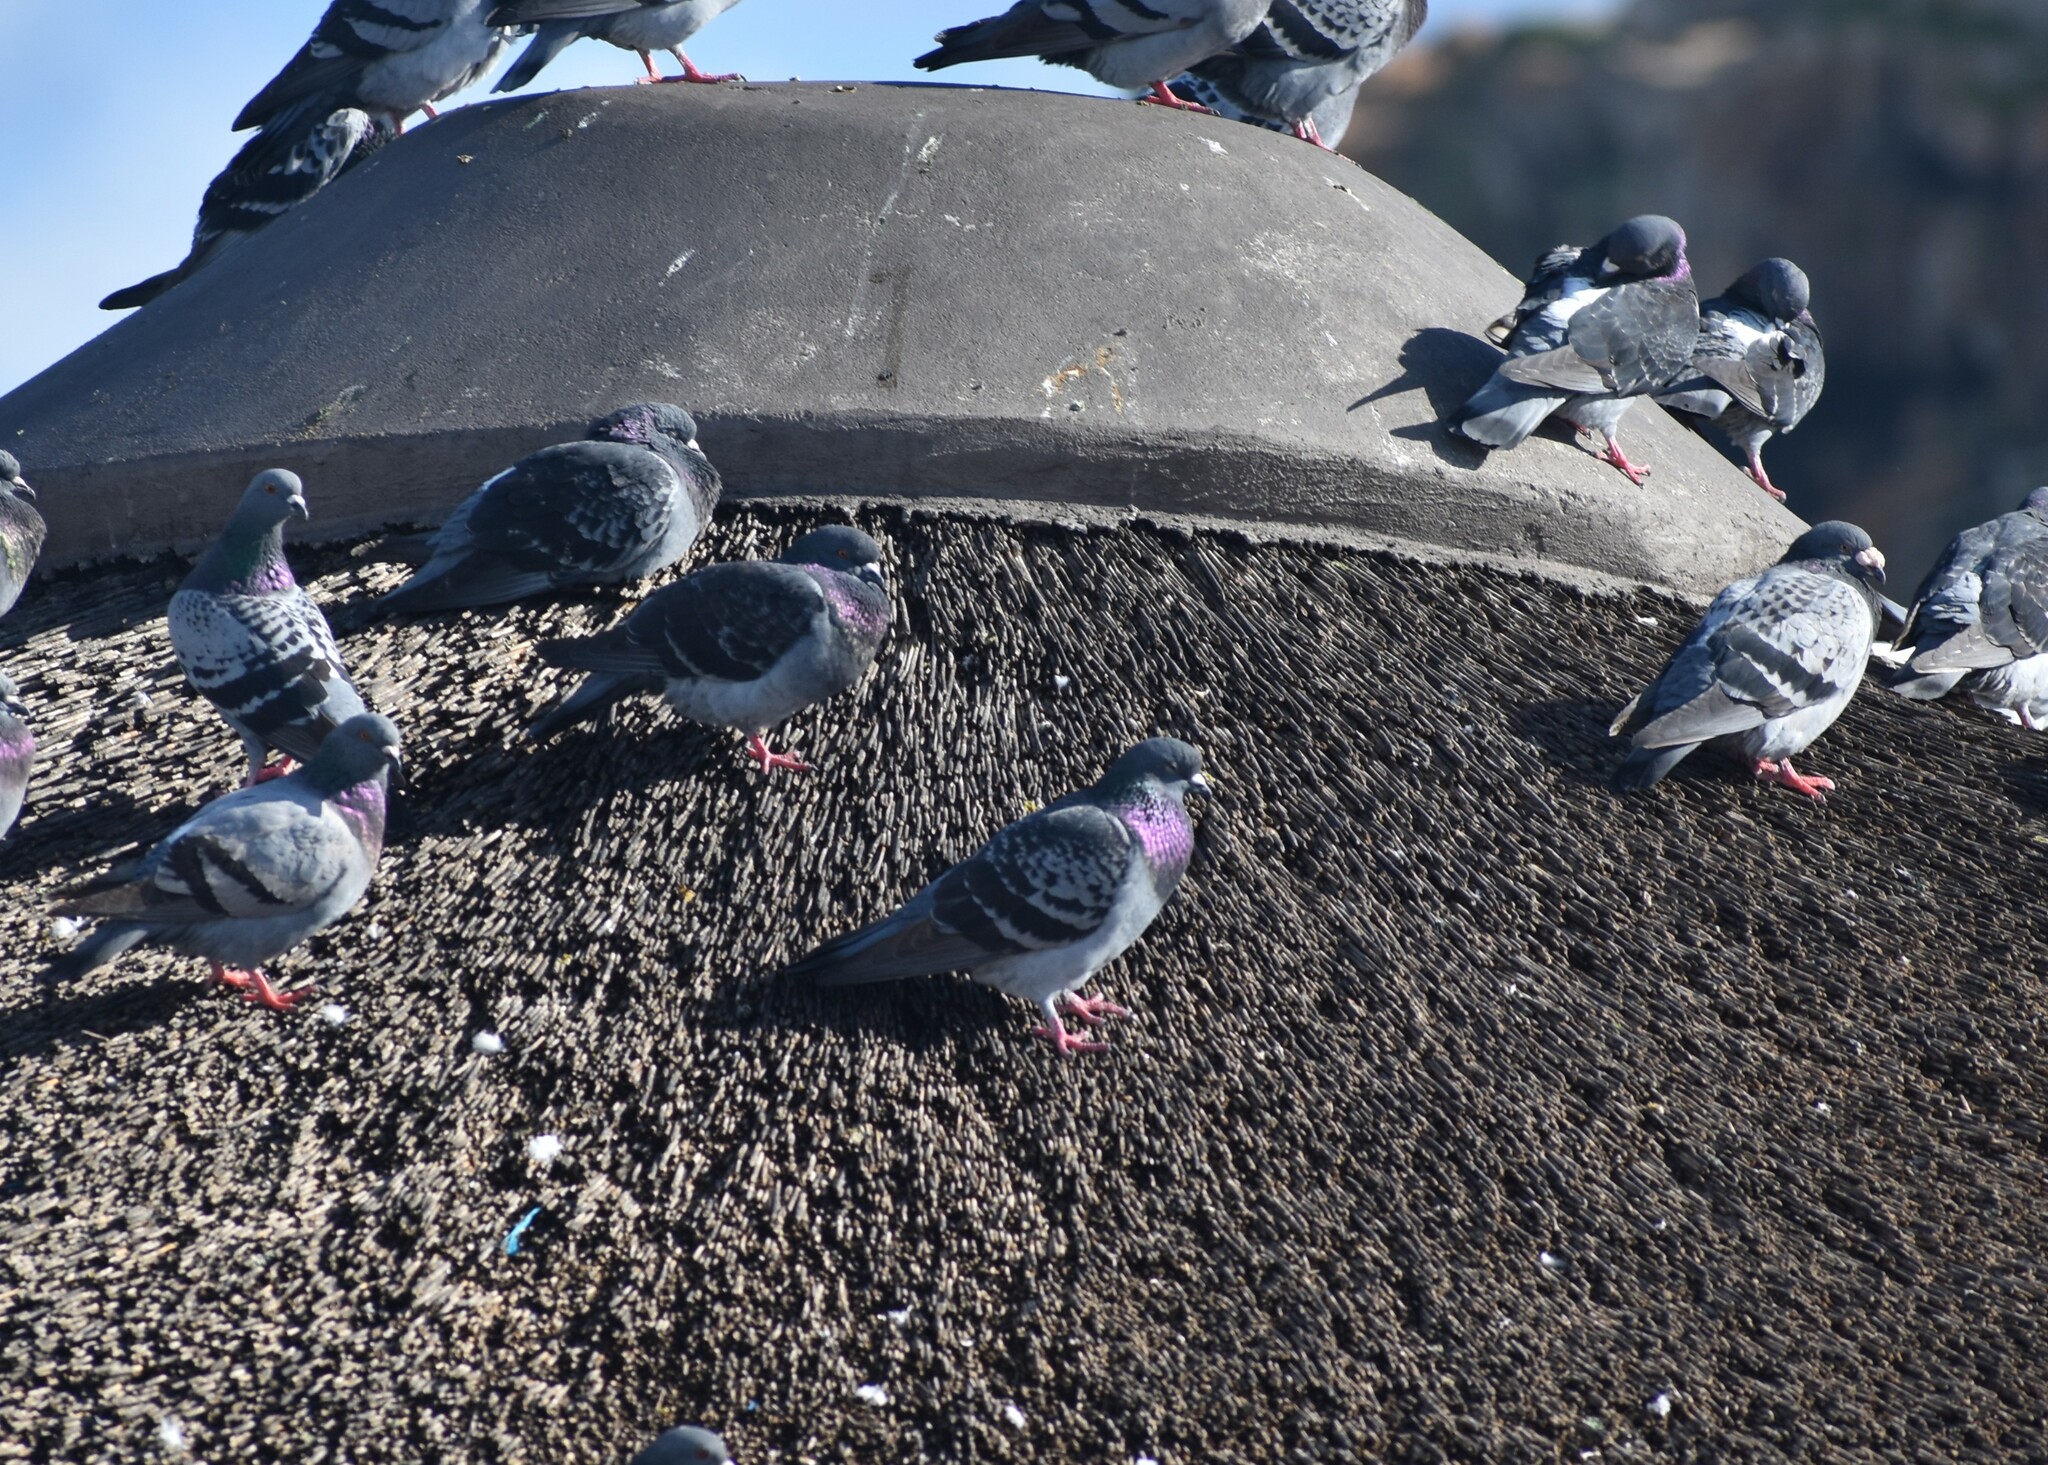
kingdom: Animalia
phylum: Chordata
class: Aves
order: Columbiformes
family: Columbidae
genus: Columba
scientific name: Columba livia
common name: Rock pigeon
